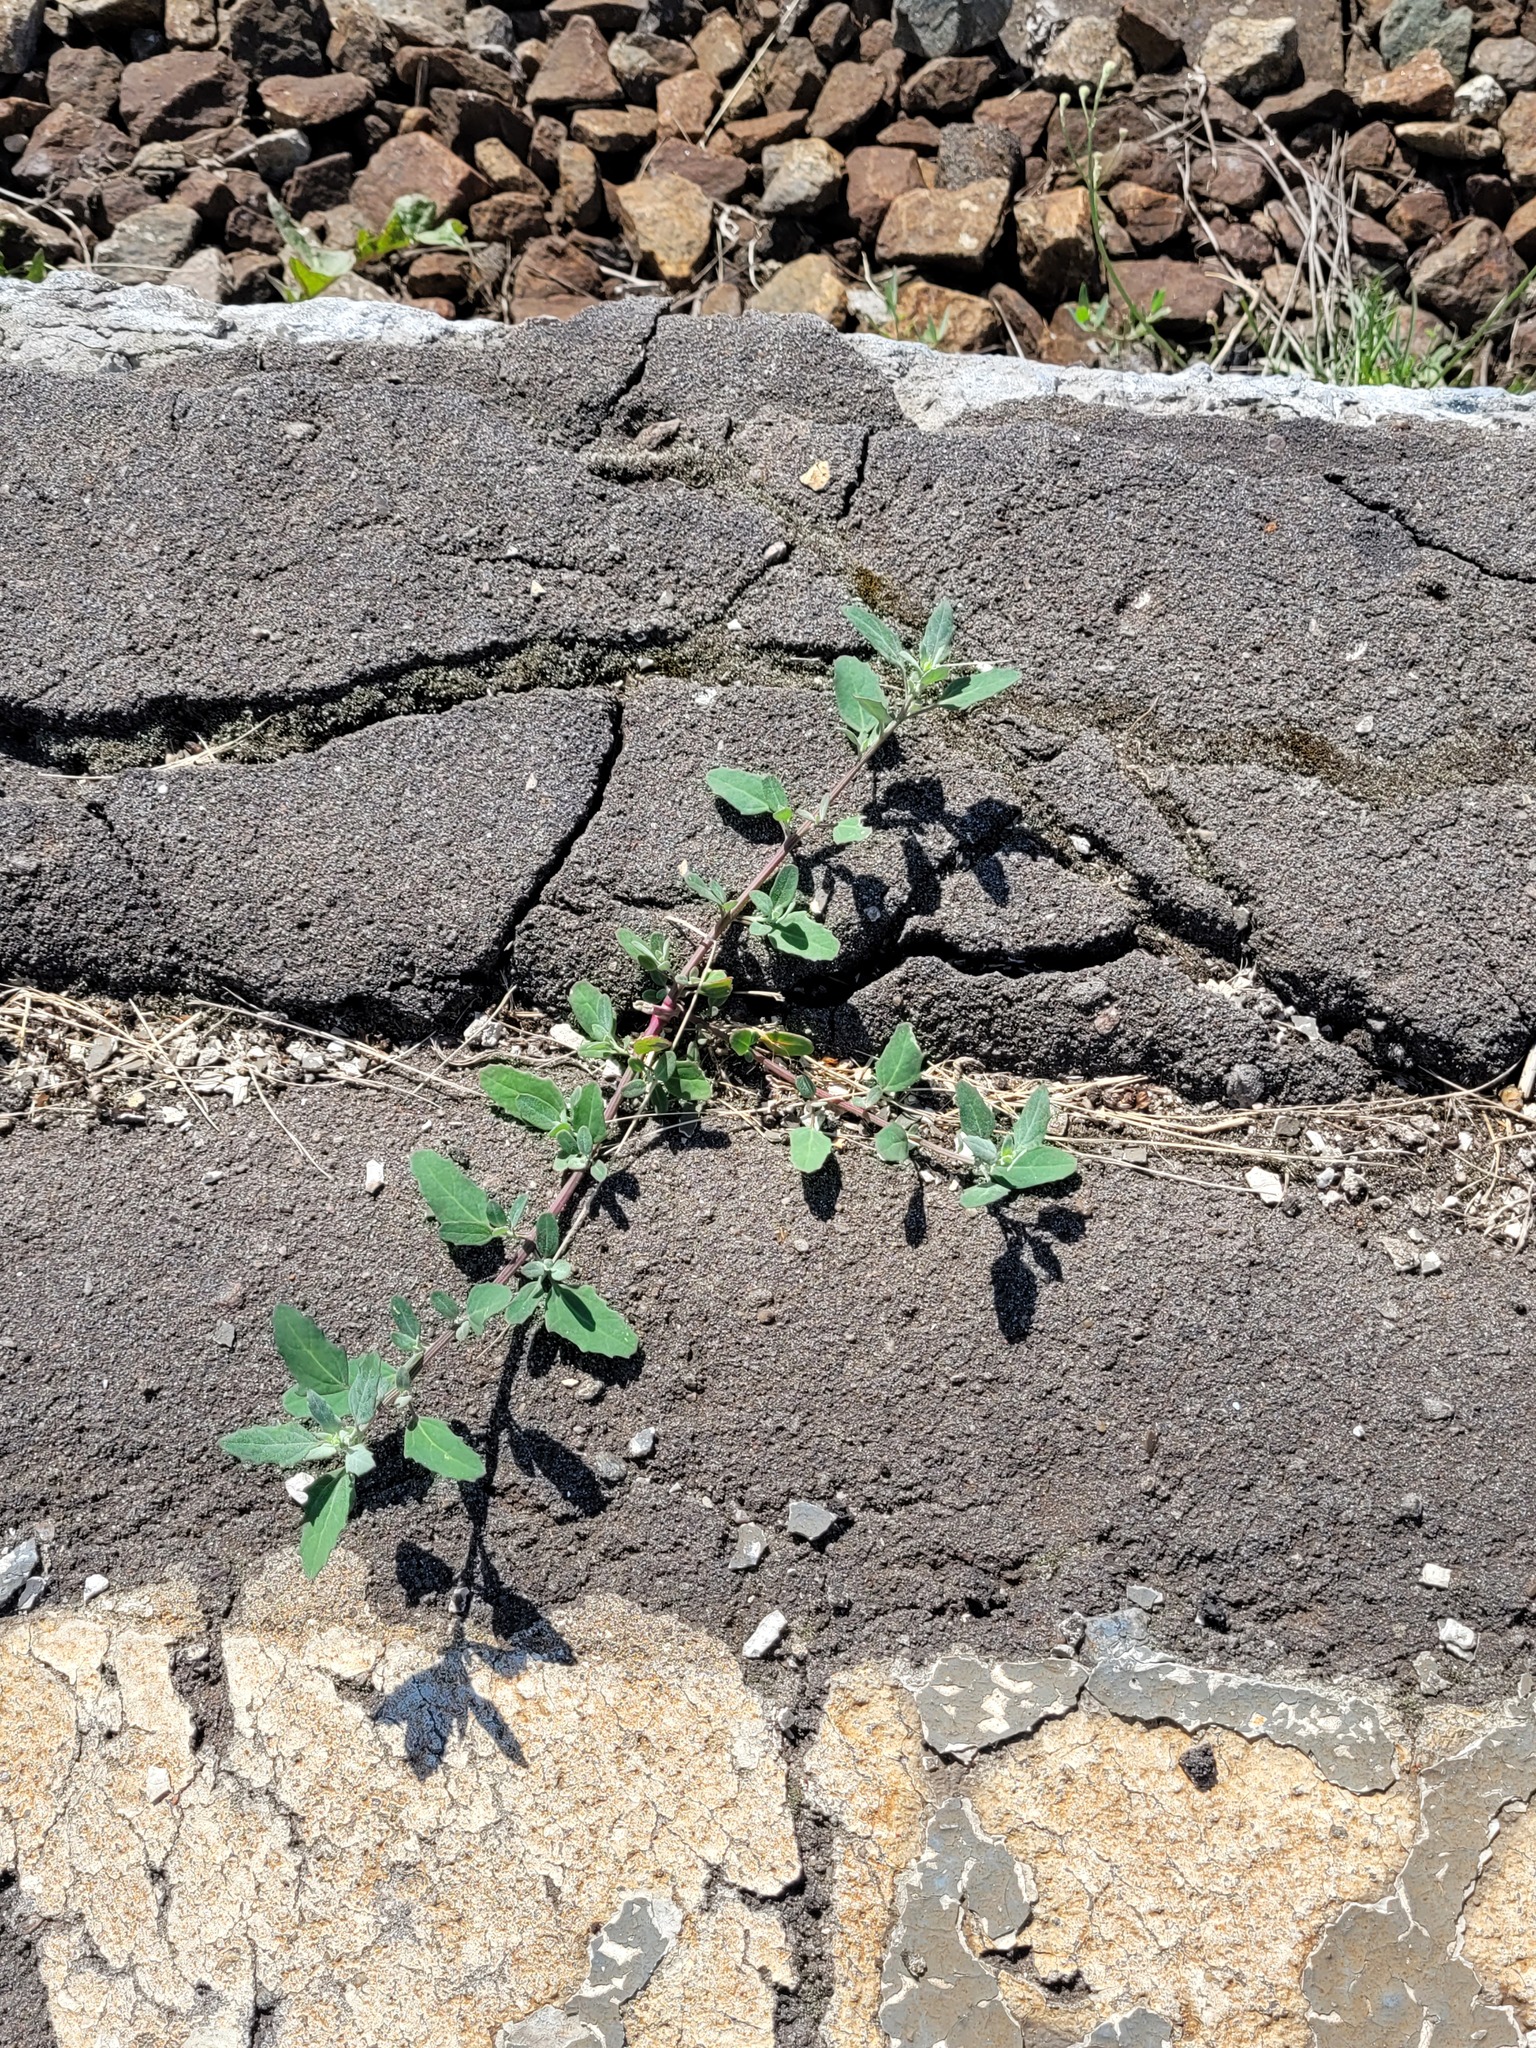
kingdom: Plantae
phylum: Tracheophyta
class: Magnoliopsida
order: Caryophyllales
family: Amaranthaceae
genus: Chenopodium
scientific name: Chenopodium album
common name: Fat-hen
